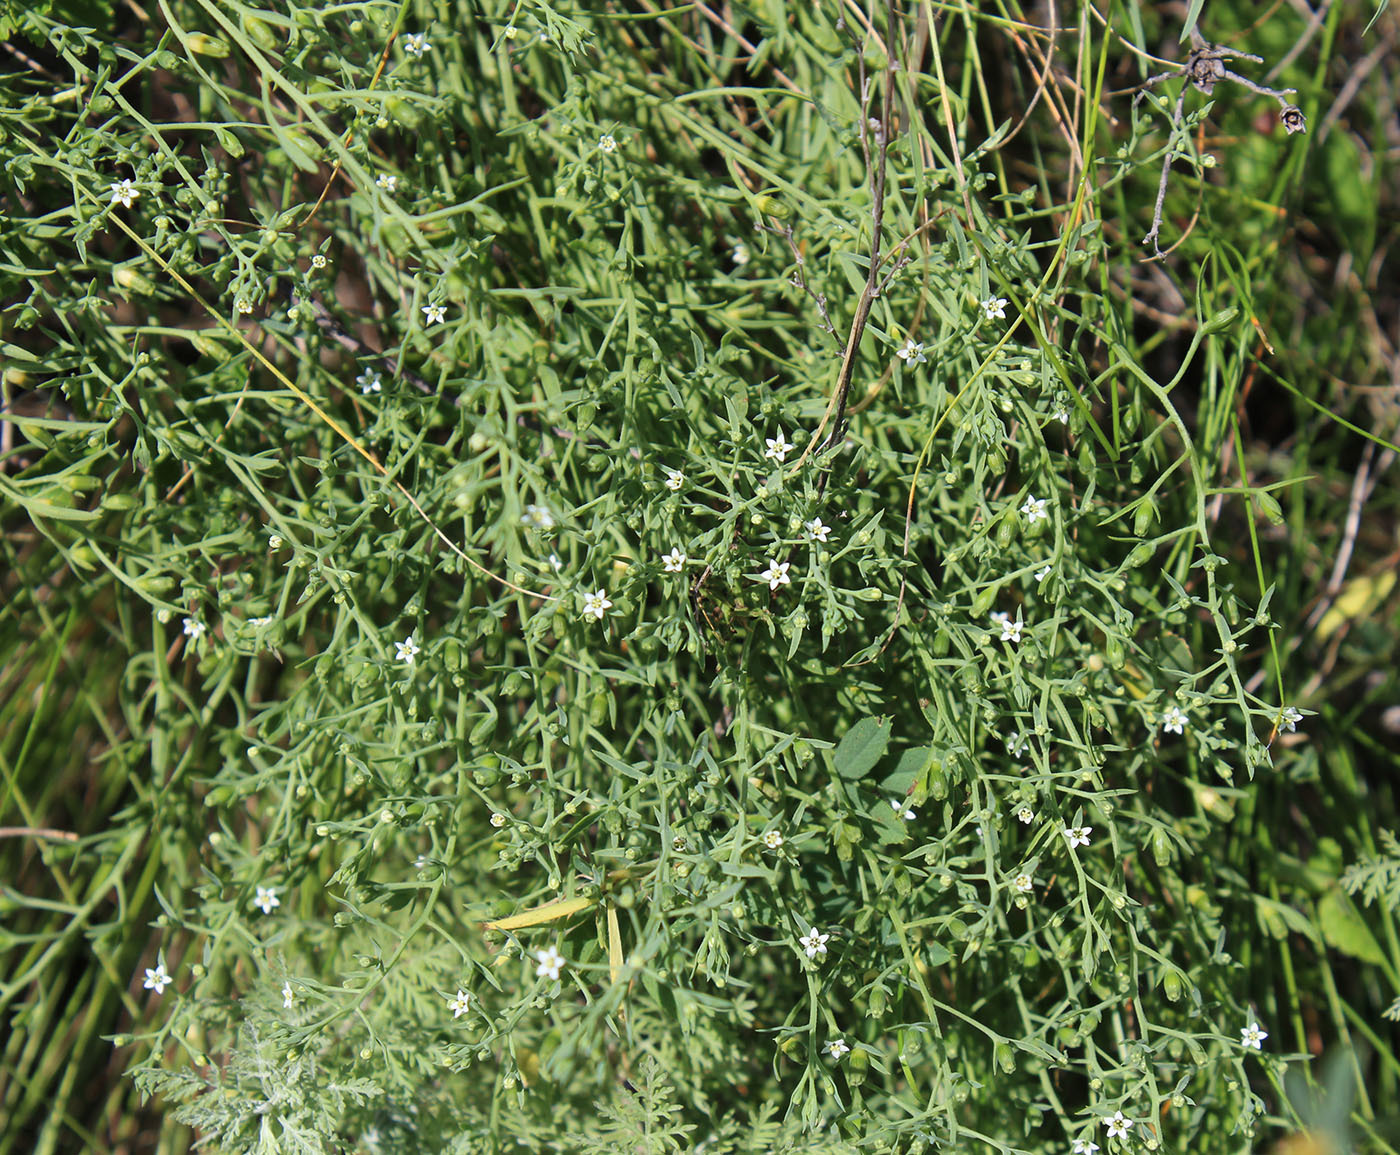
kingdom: Plantae
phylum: Tracheophyta
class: Magnoliopsida
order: Santalales
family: Thesiaceae
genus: Thesium
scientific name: Thesium ramosum
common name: Field thesium
